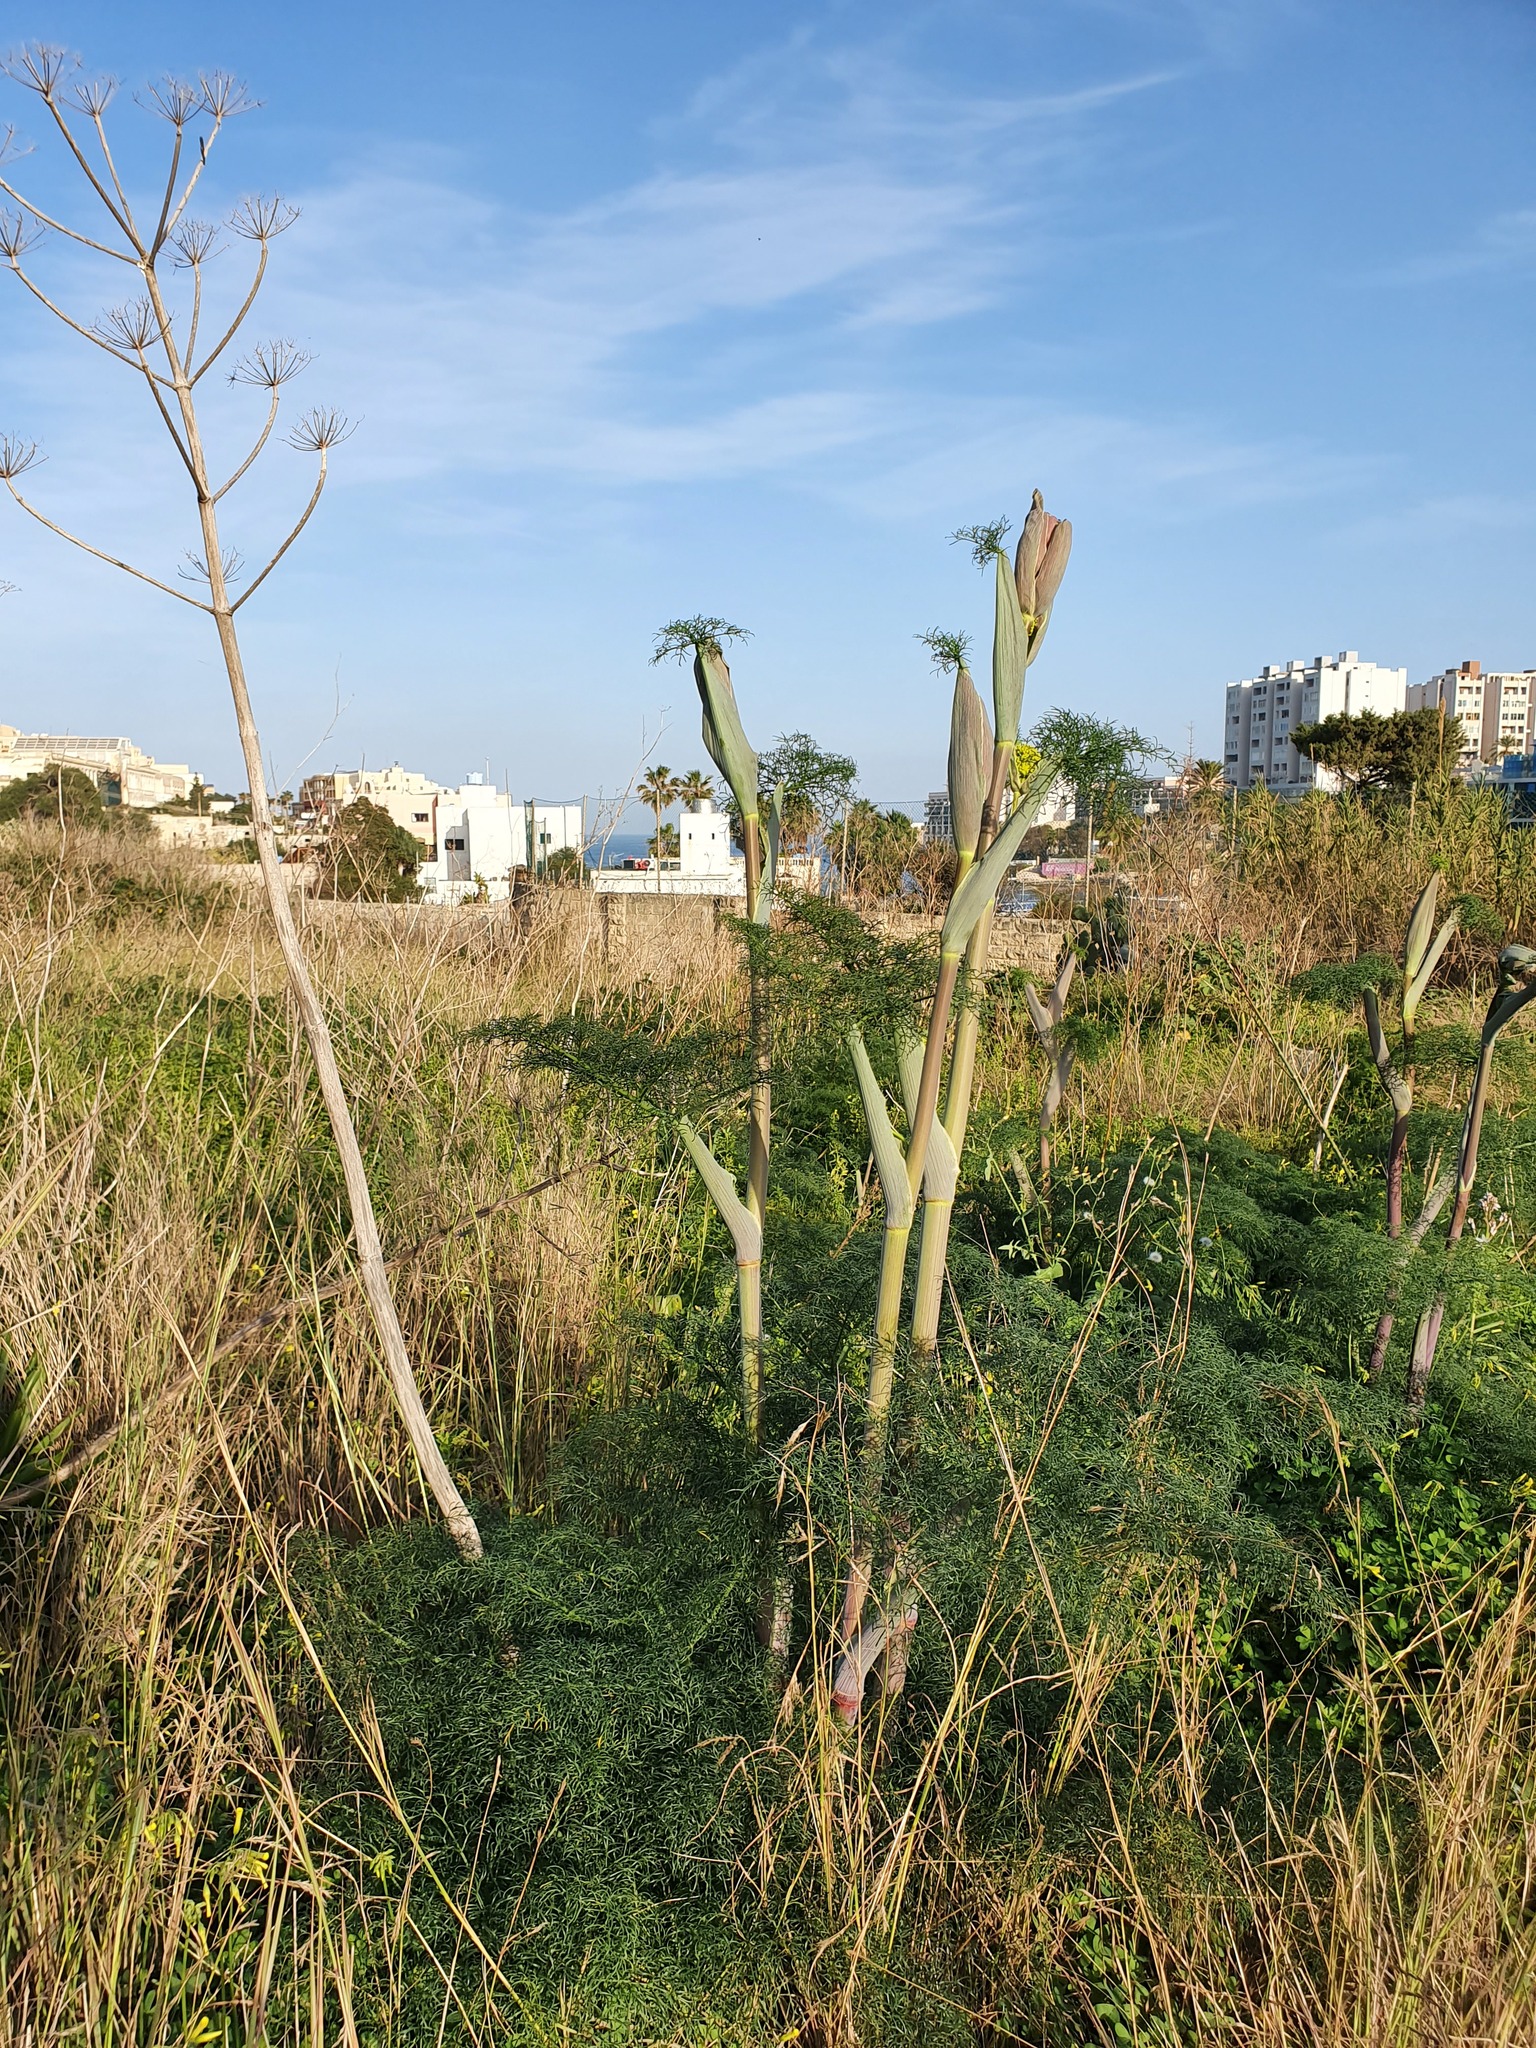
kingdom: Plantae
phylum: Tracheophyta
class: Magnoliopsida
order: Apiales
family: Apiaceae
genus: Ferula
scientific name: Ferula melitensis
